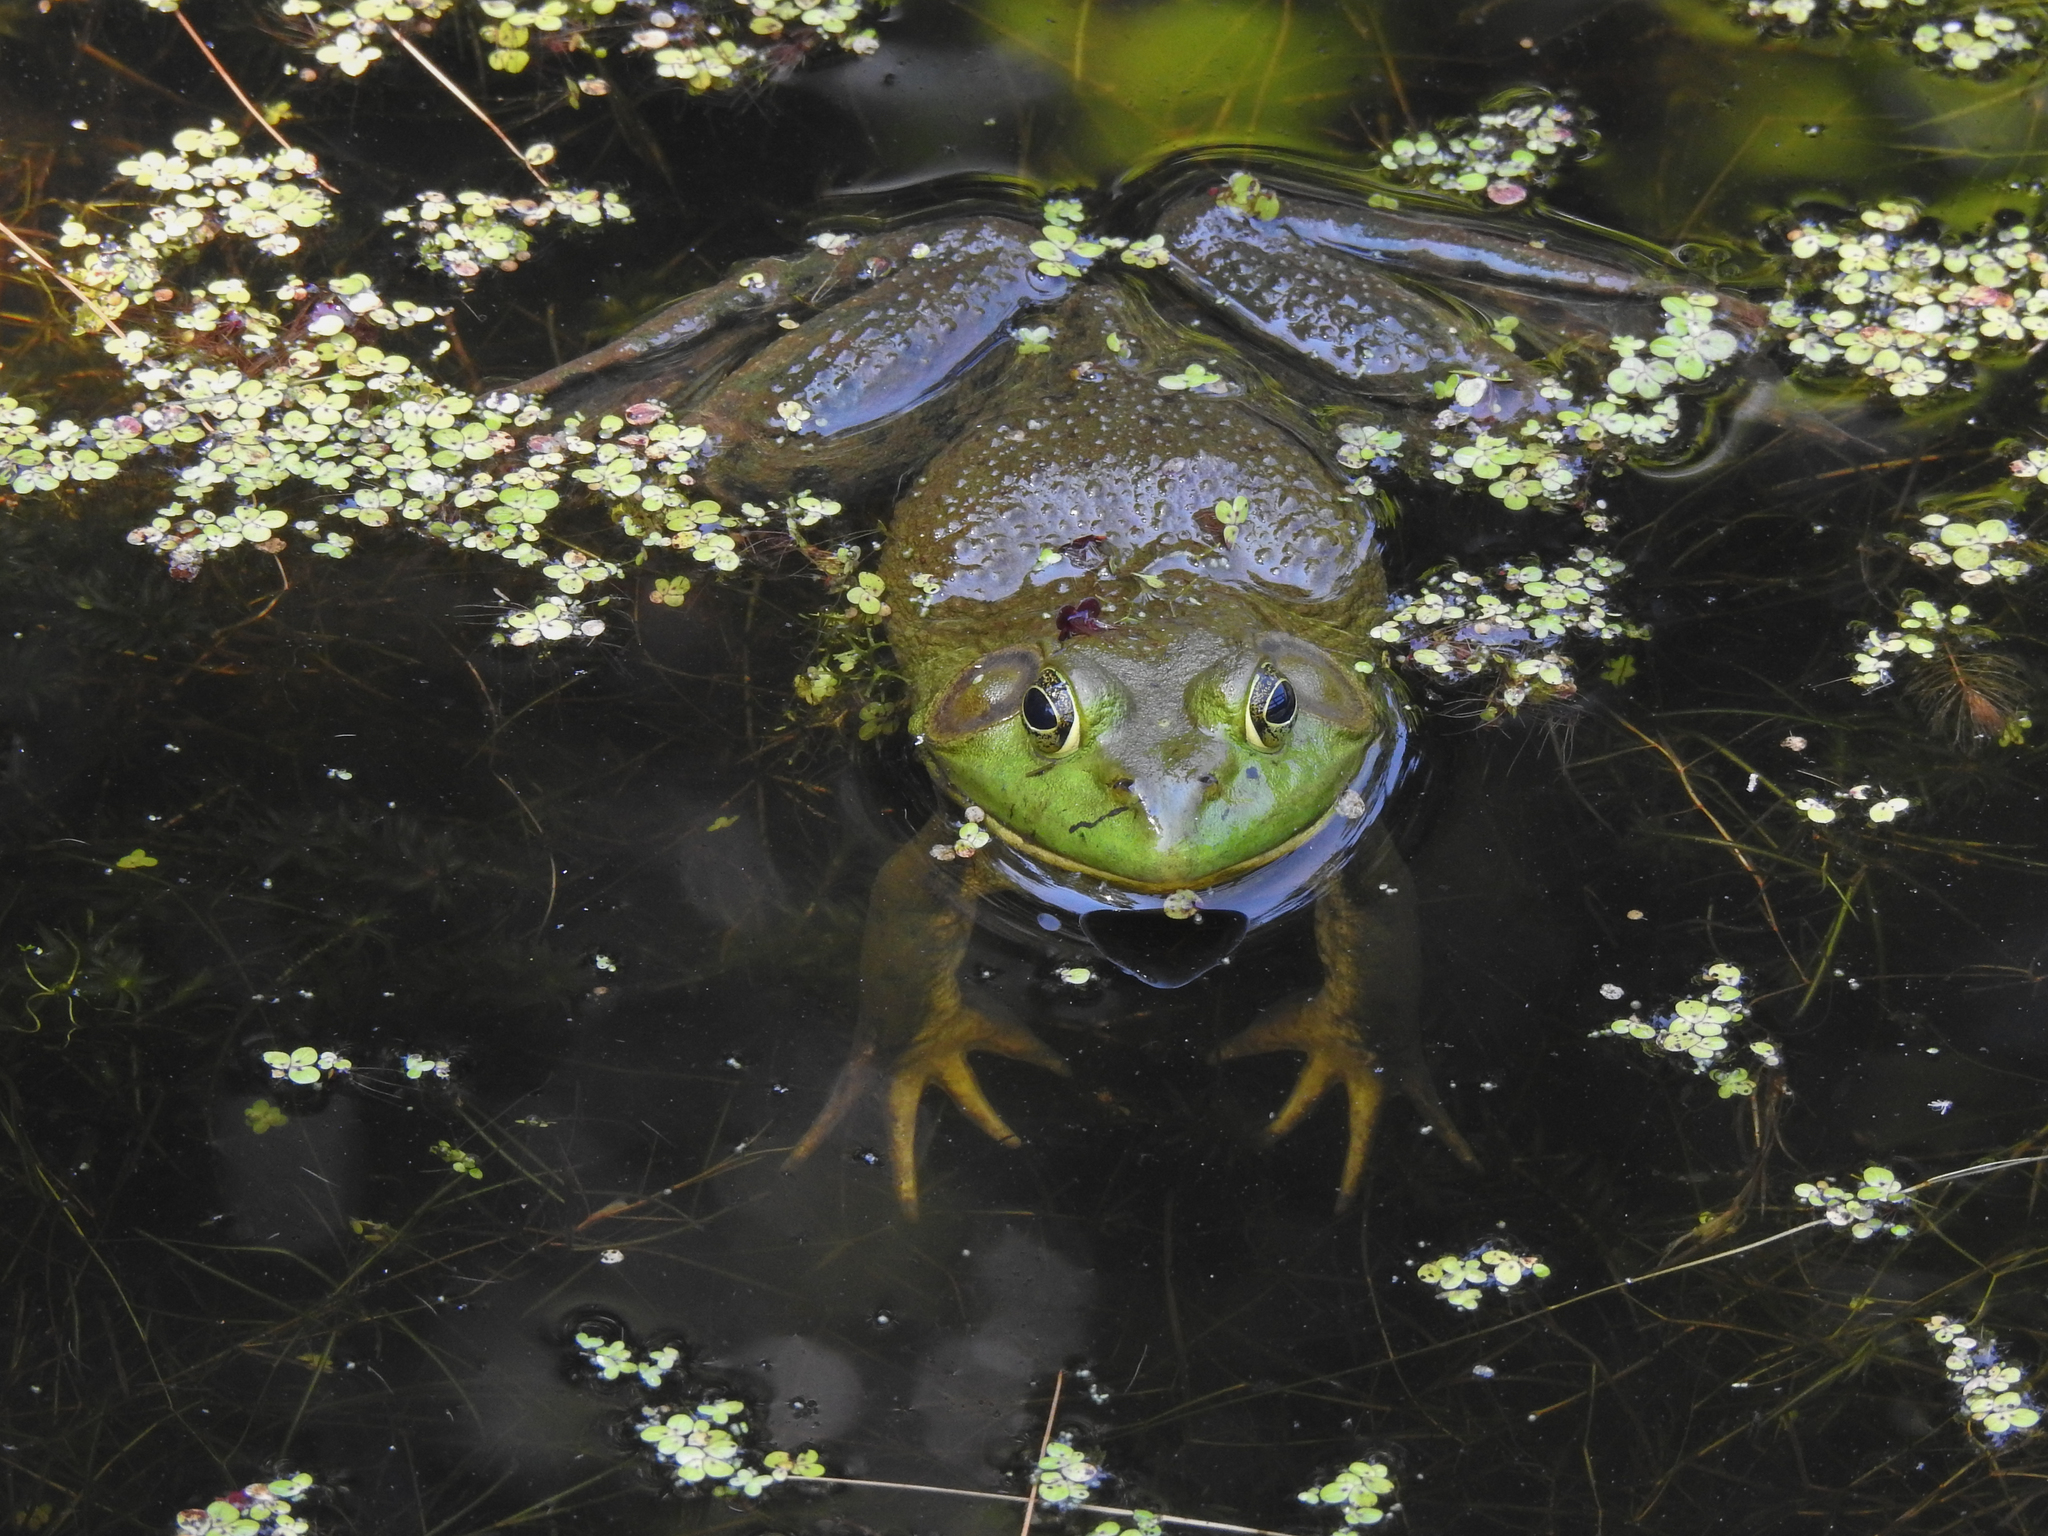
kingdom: Animalia
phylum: Chordata
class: Amphibia
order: Anura
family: Ranidae
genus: Lithobates
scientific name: Lithobates catesbeianus
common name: American bullfrog
